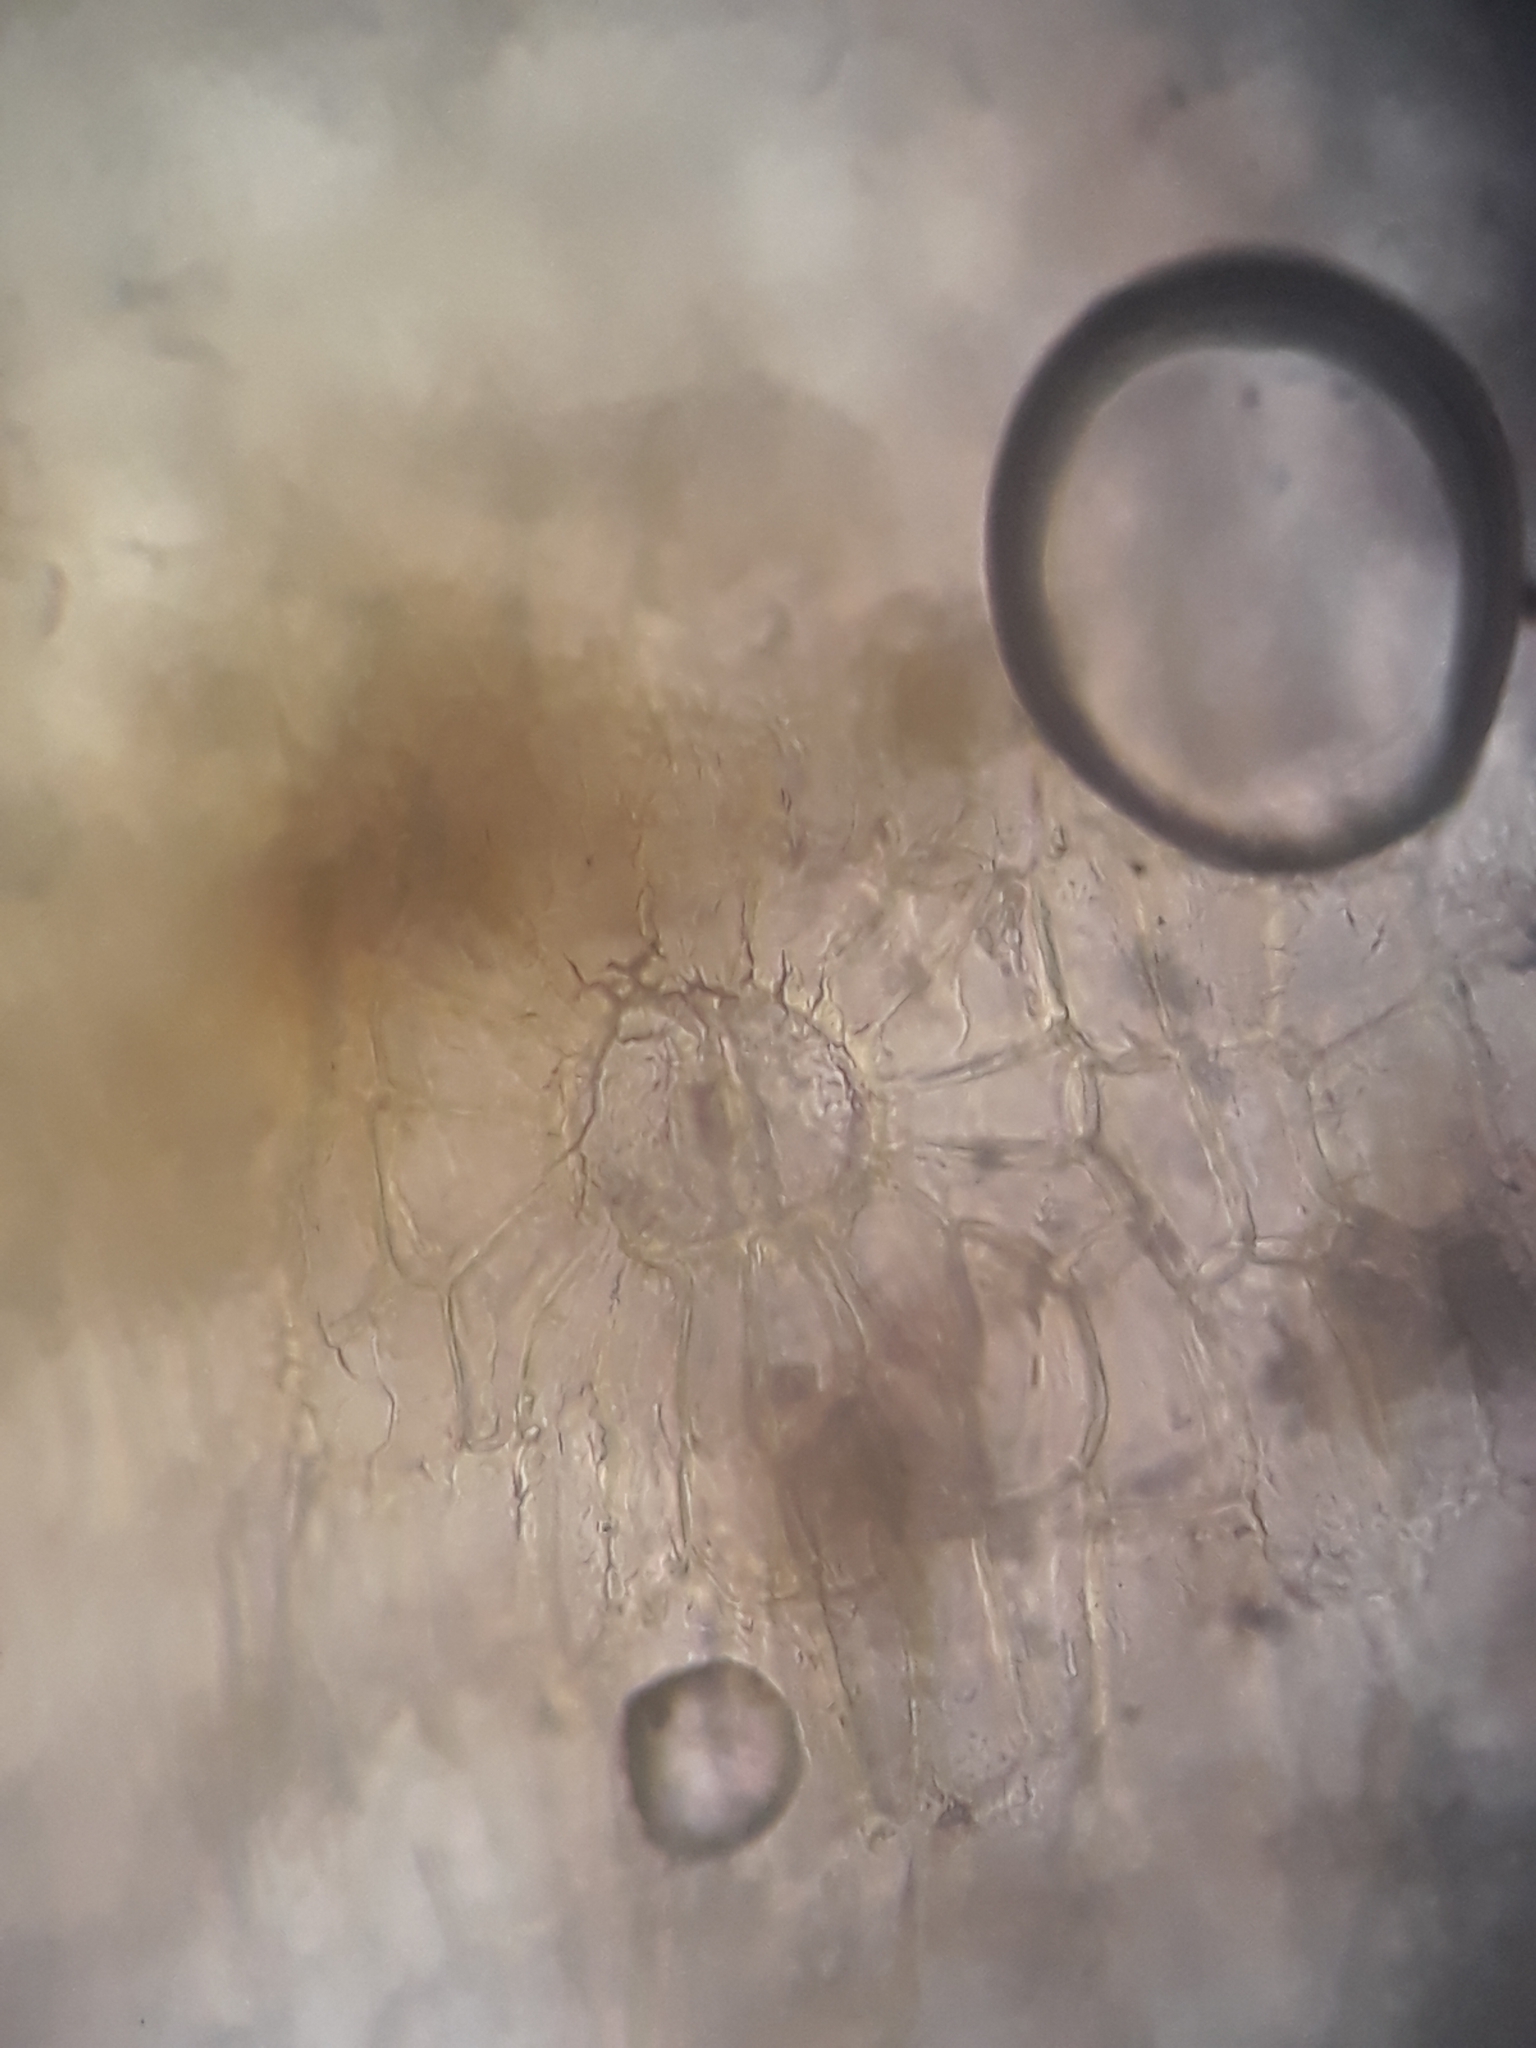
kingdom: Plantae
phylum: Bryophyta
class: Bryopsida
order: Orthotrichales
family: Orthotrichaceae
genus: Lewinskya
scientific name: Lewinskya graphiomitria
